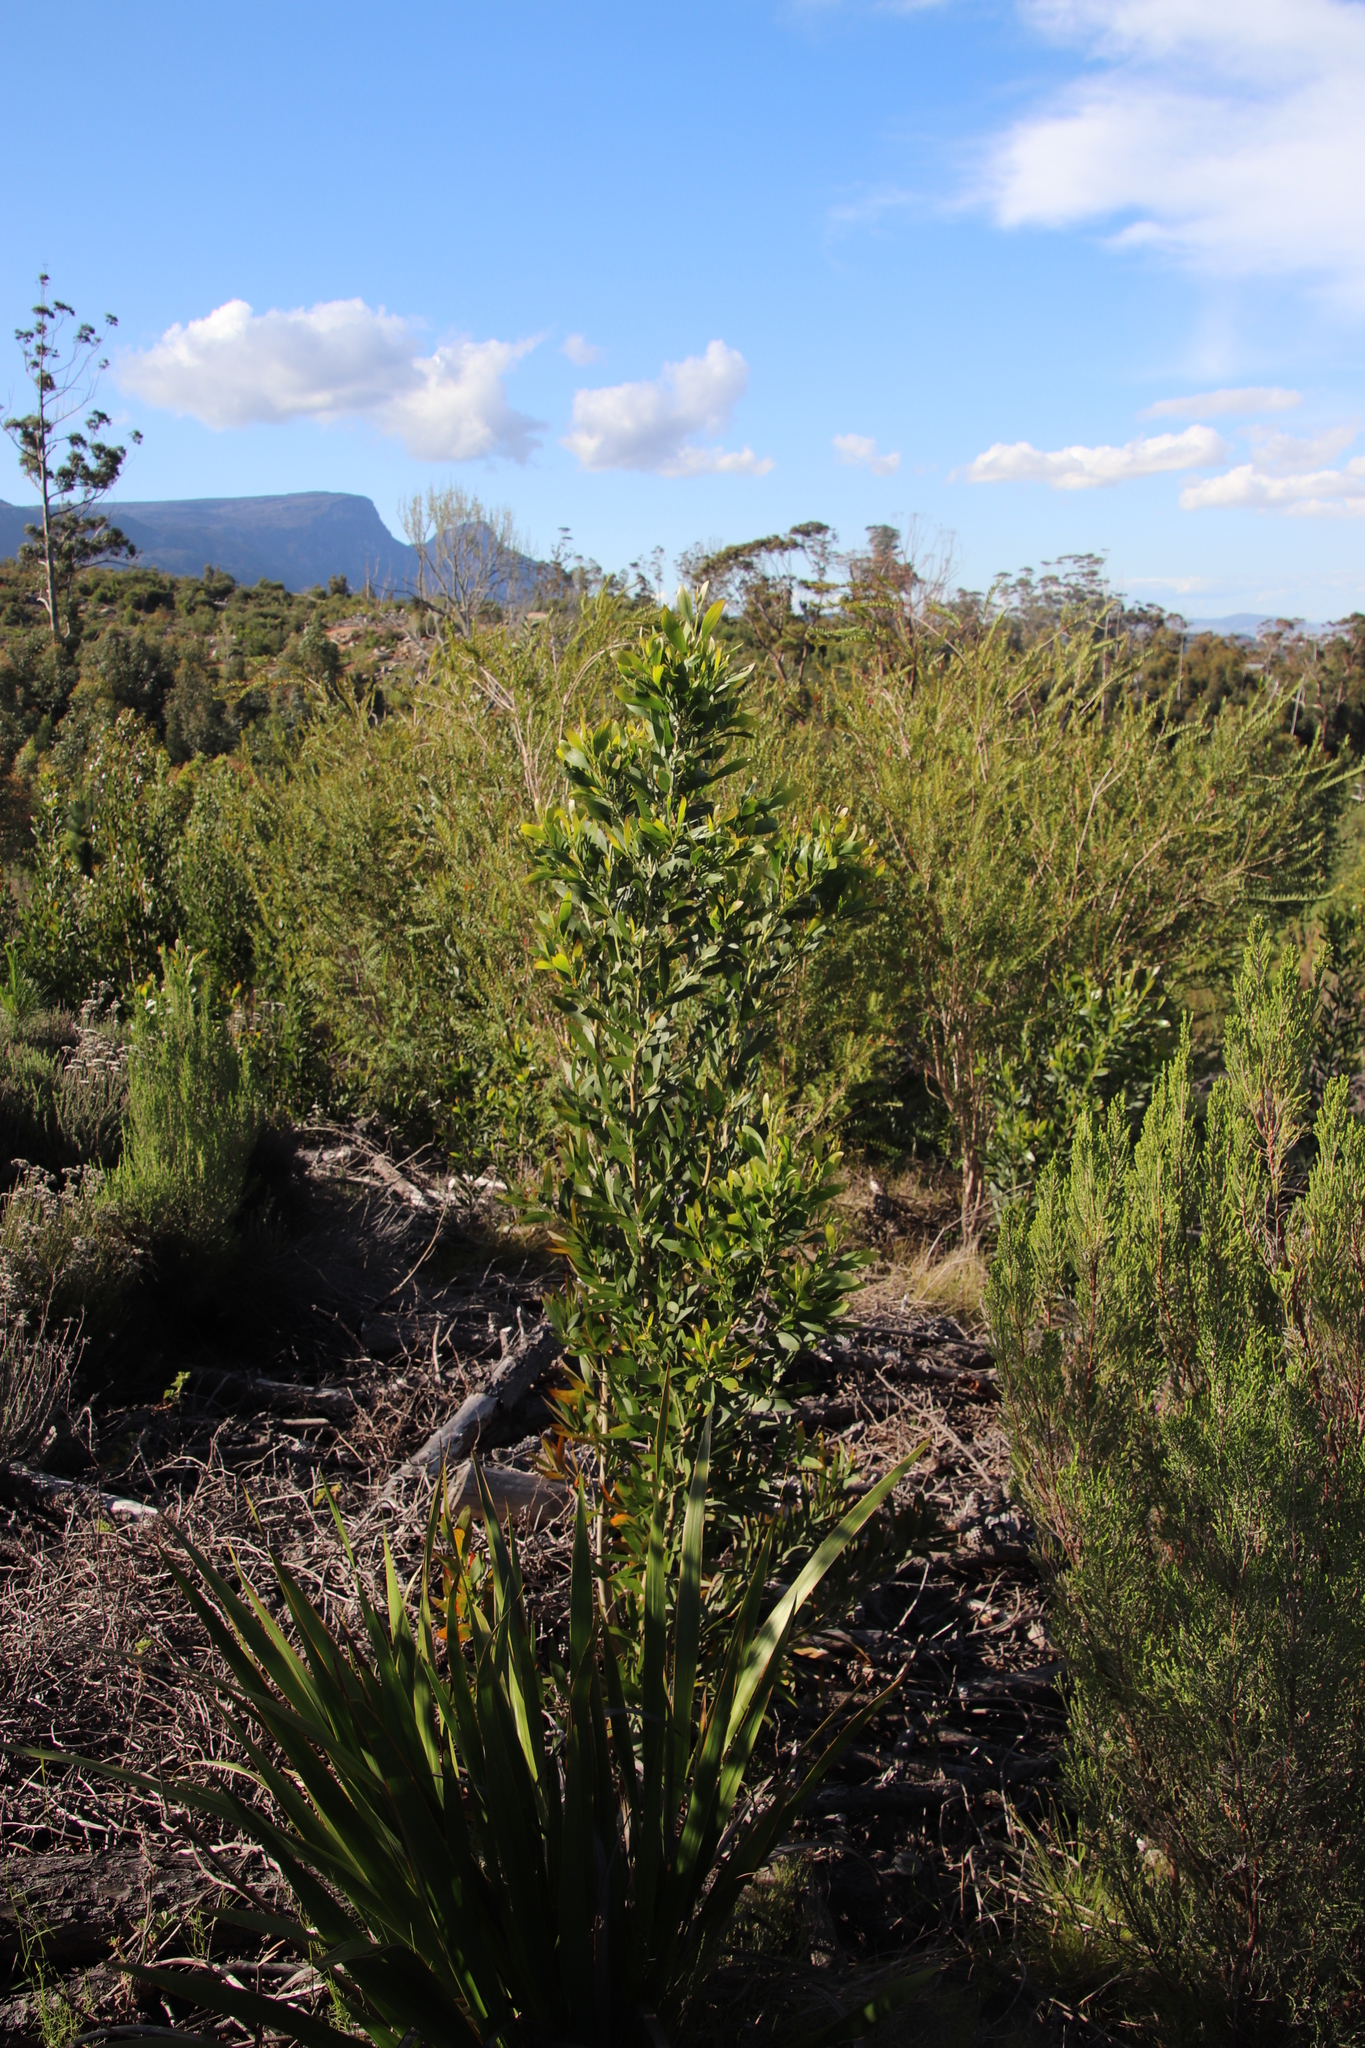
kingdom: Plantae
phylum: Tracheophyta
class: Magnoliopsida
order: Fabales
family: Fabaceae
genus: Acacia
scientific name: Acacia melanoxylon
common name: Blackwood
